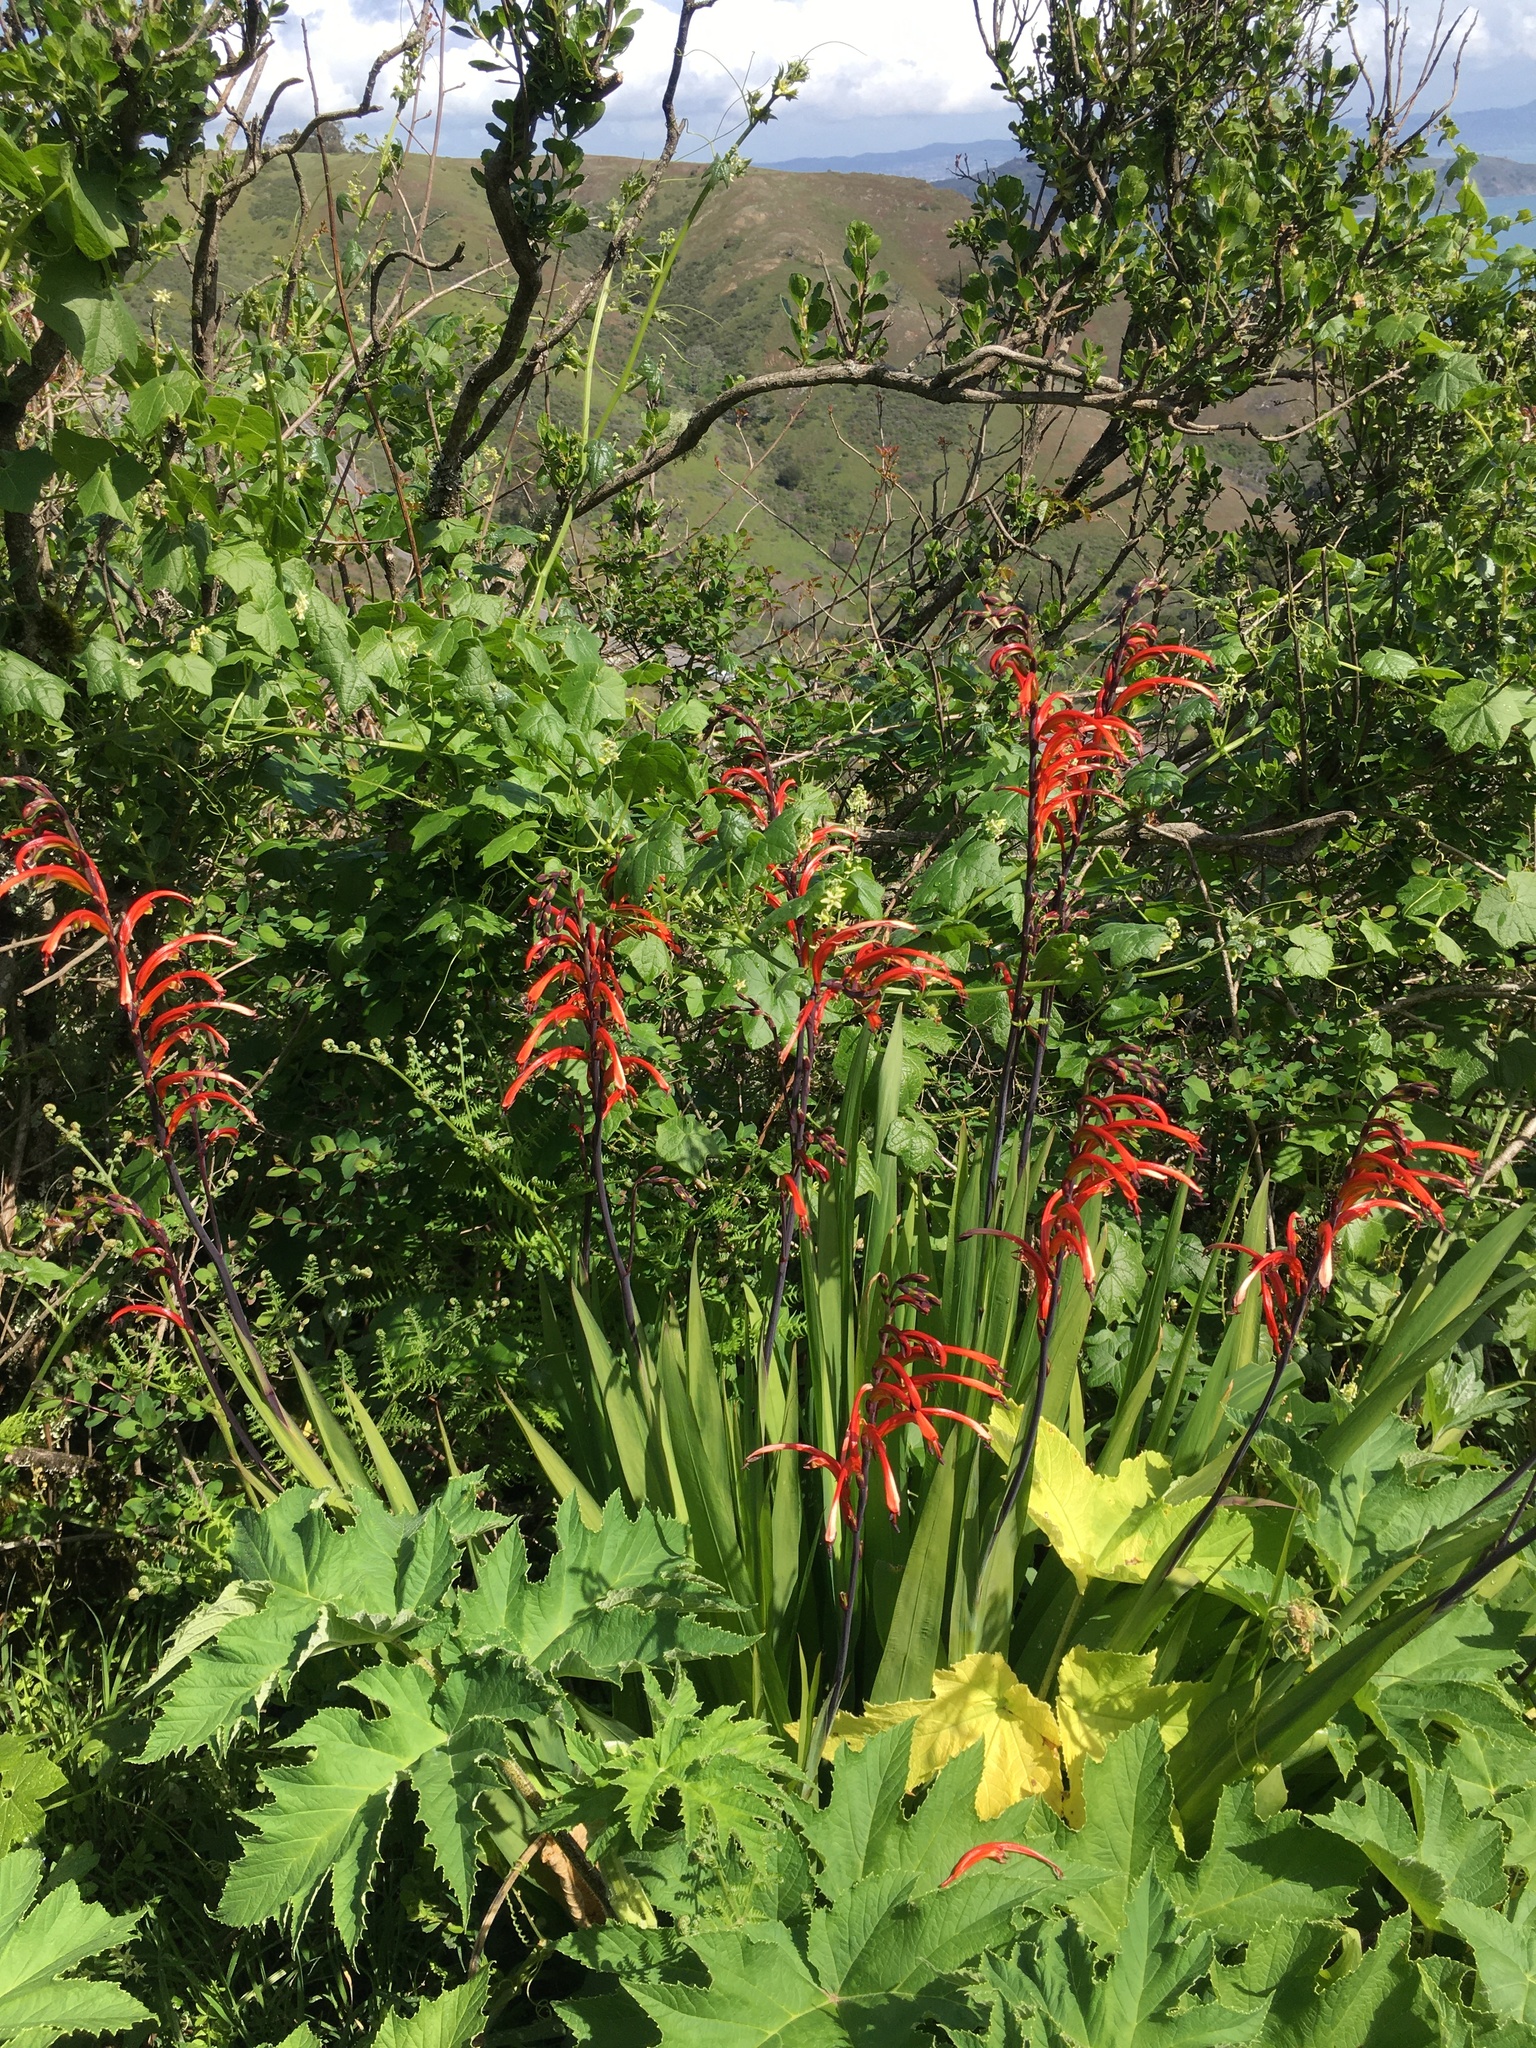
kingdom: Plantae
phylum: Tracheophyta
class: Liliopsida
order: Asparagales
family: Iridaceae
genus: Chasmanthe
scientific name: Chasmanthe bicolor
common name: Bicolor cobra lily
